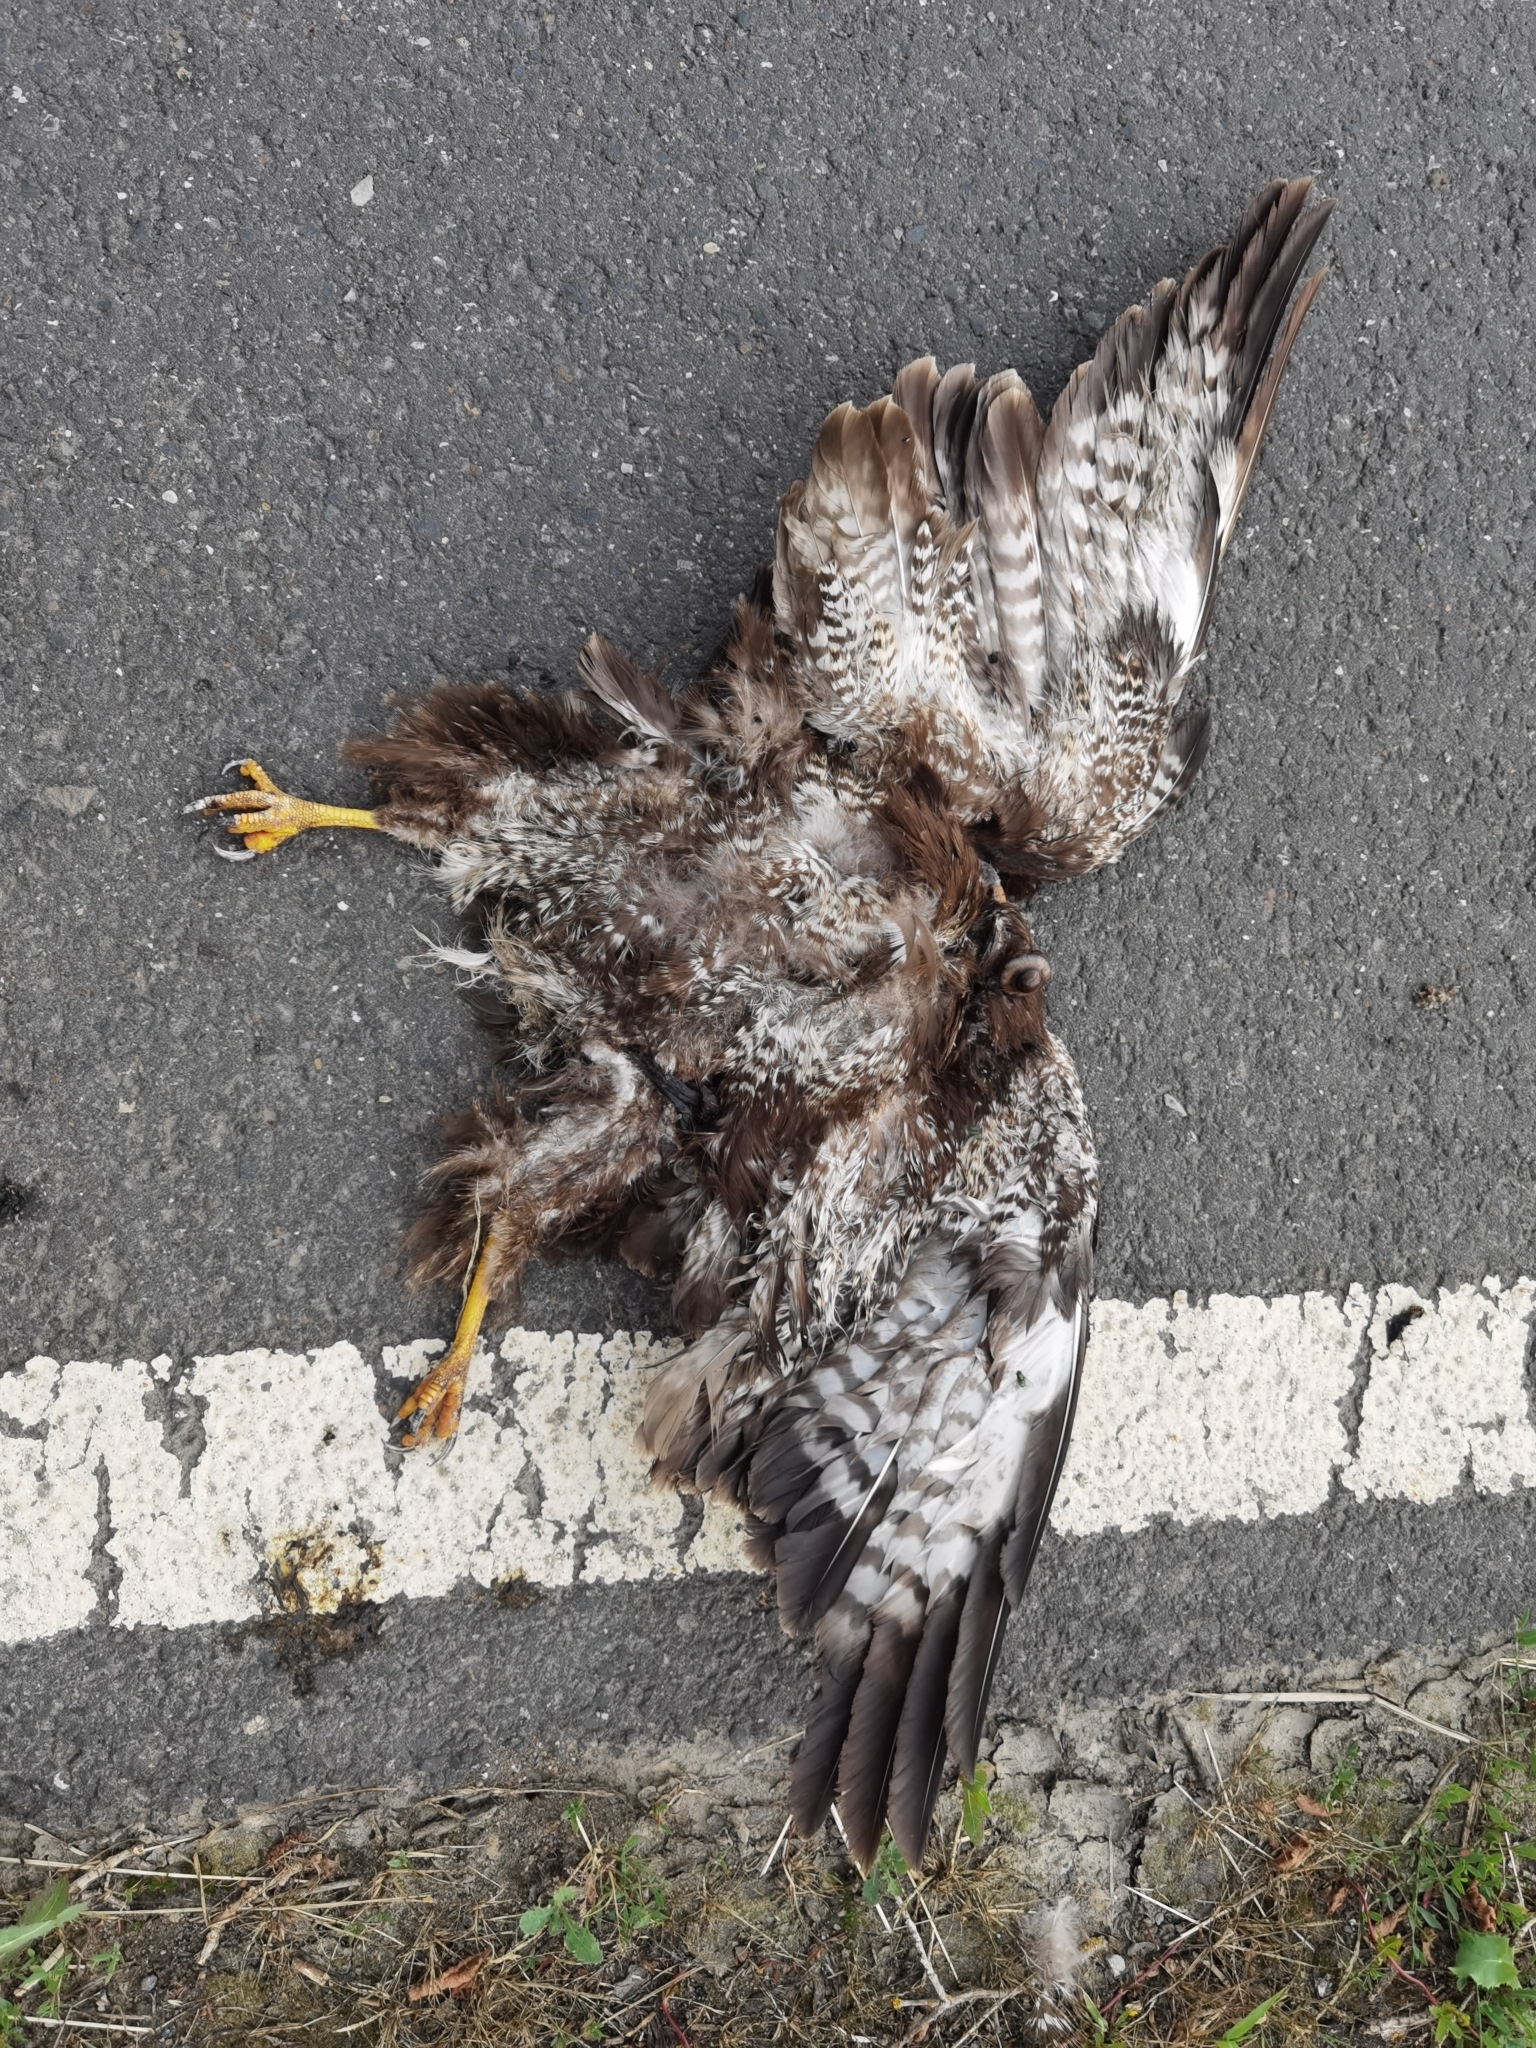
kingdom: Animalia
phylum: Chordata
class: Aves
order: Accipitriformes
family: Accipitridae
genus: Buteo
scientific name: Buteo buteo
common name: Common buzzard
